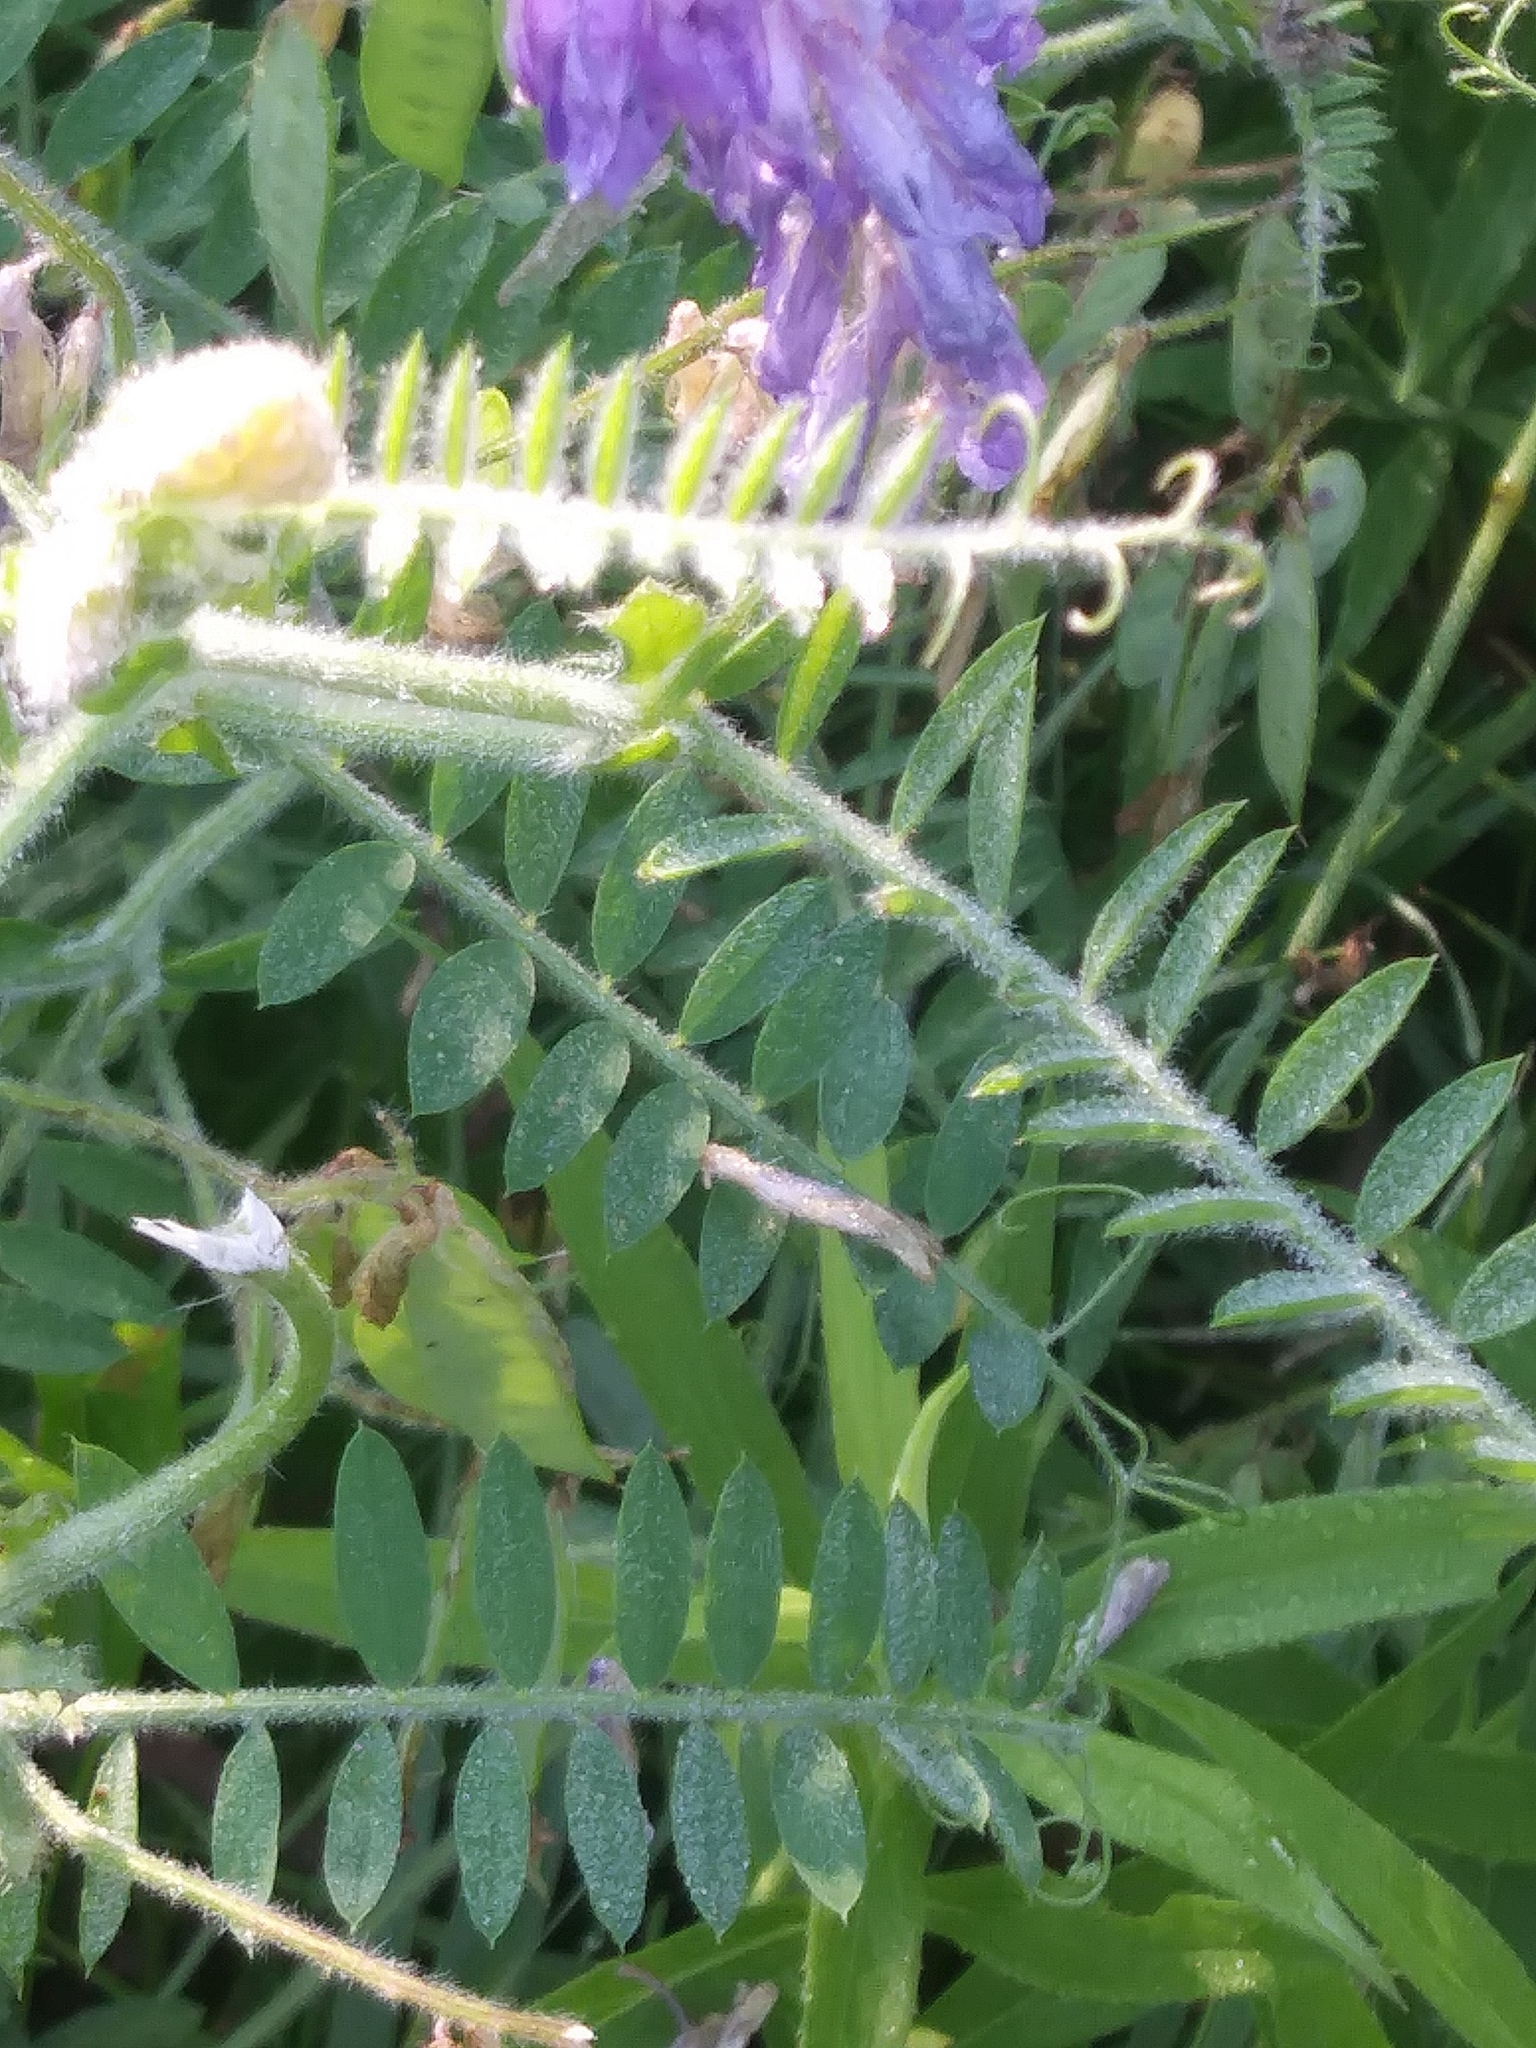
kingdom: Plantae
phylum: Tracheophyta
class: Magnoliopsida
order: Fabales
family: Fabaceae
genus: Vicia
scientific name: Vicia villosa
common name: Fodder vetch
